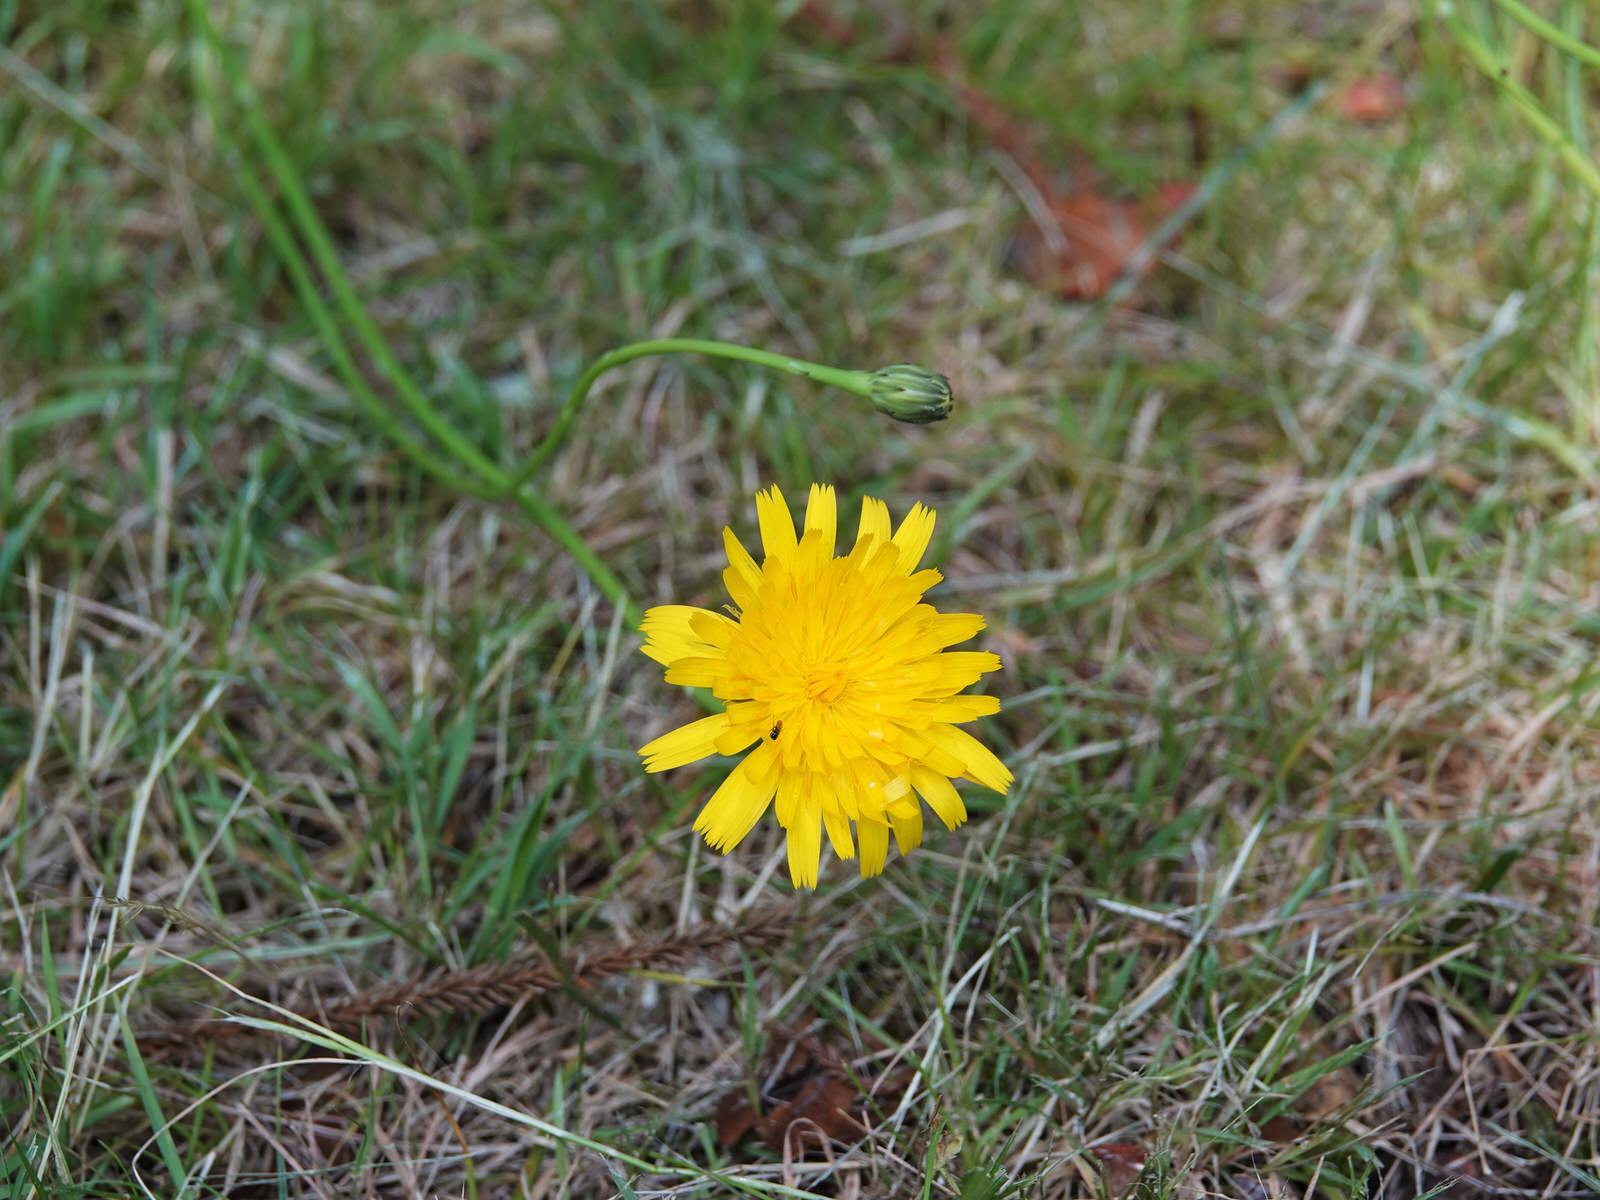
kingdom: Plantae
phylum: Tracheophyta
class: Magnoliopsida
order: Asterales
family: Asteraceae
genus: Taraxacum
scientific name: Taraxacum officinale
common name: Common dandelion
